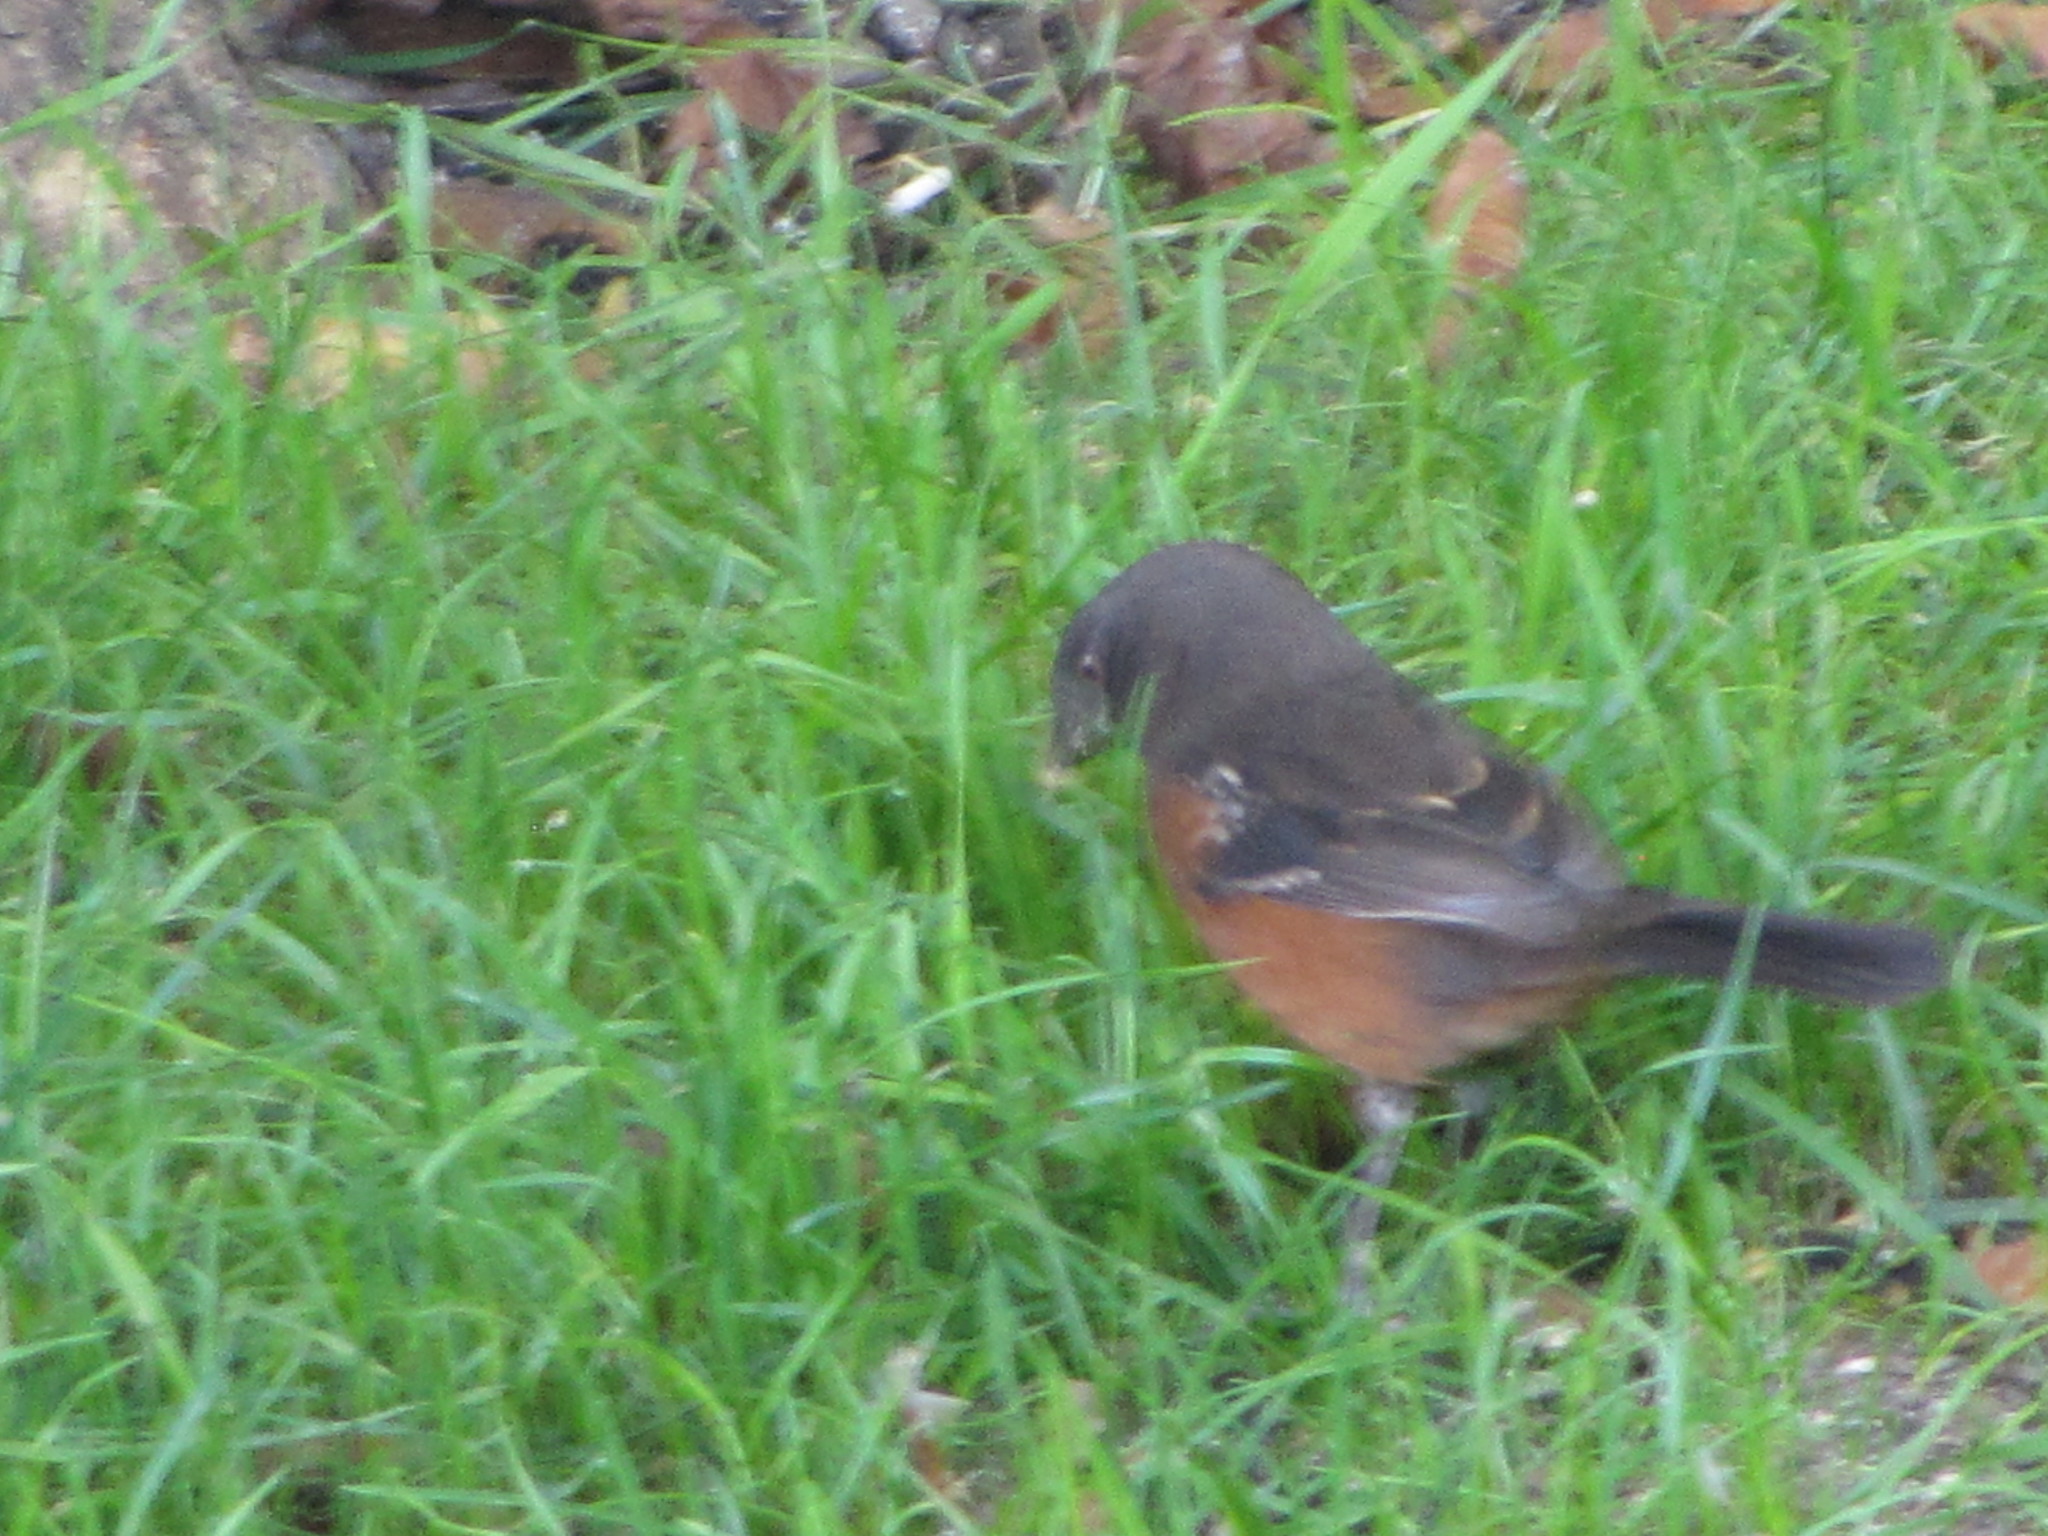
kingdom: Animalia
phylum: Chordata
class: Aves
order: Passeriformes
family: Passerellidae
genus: Pipilo
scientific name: Pipilo maculatus
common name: Spotted towhee
